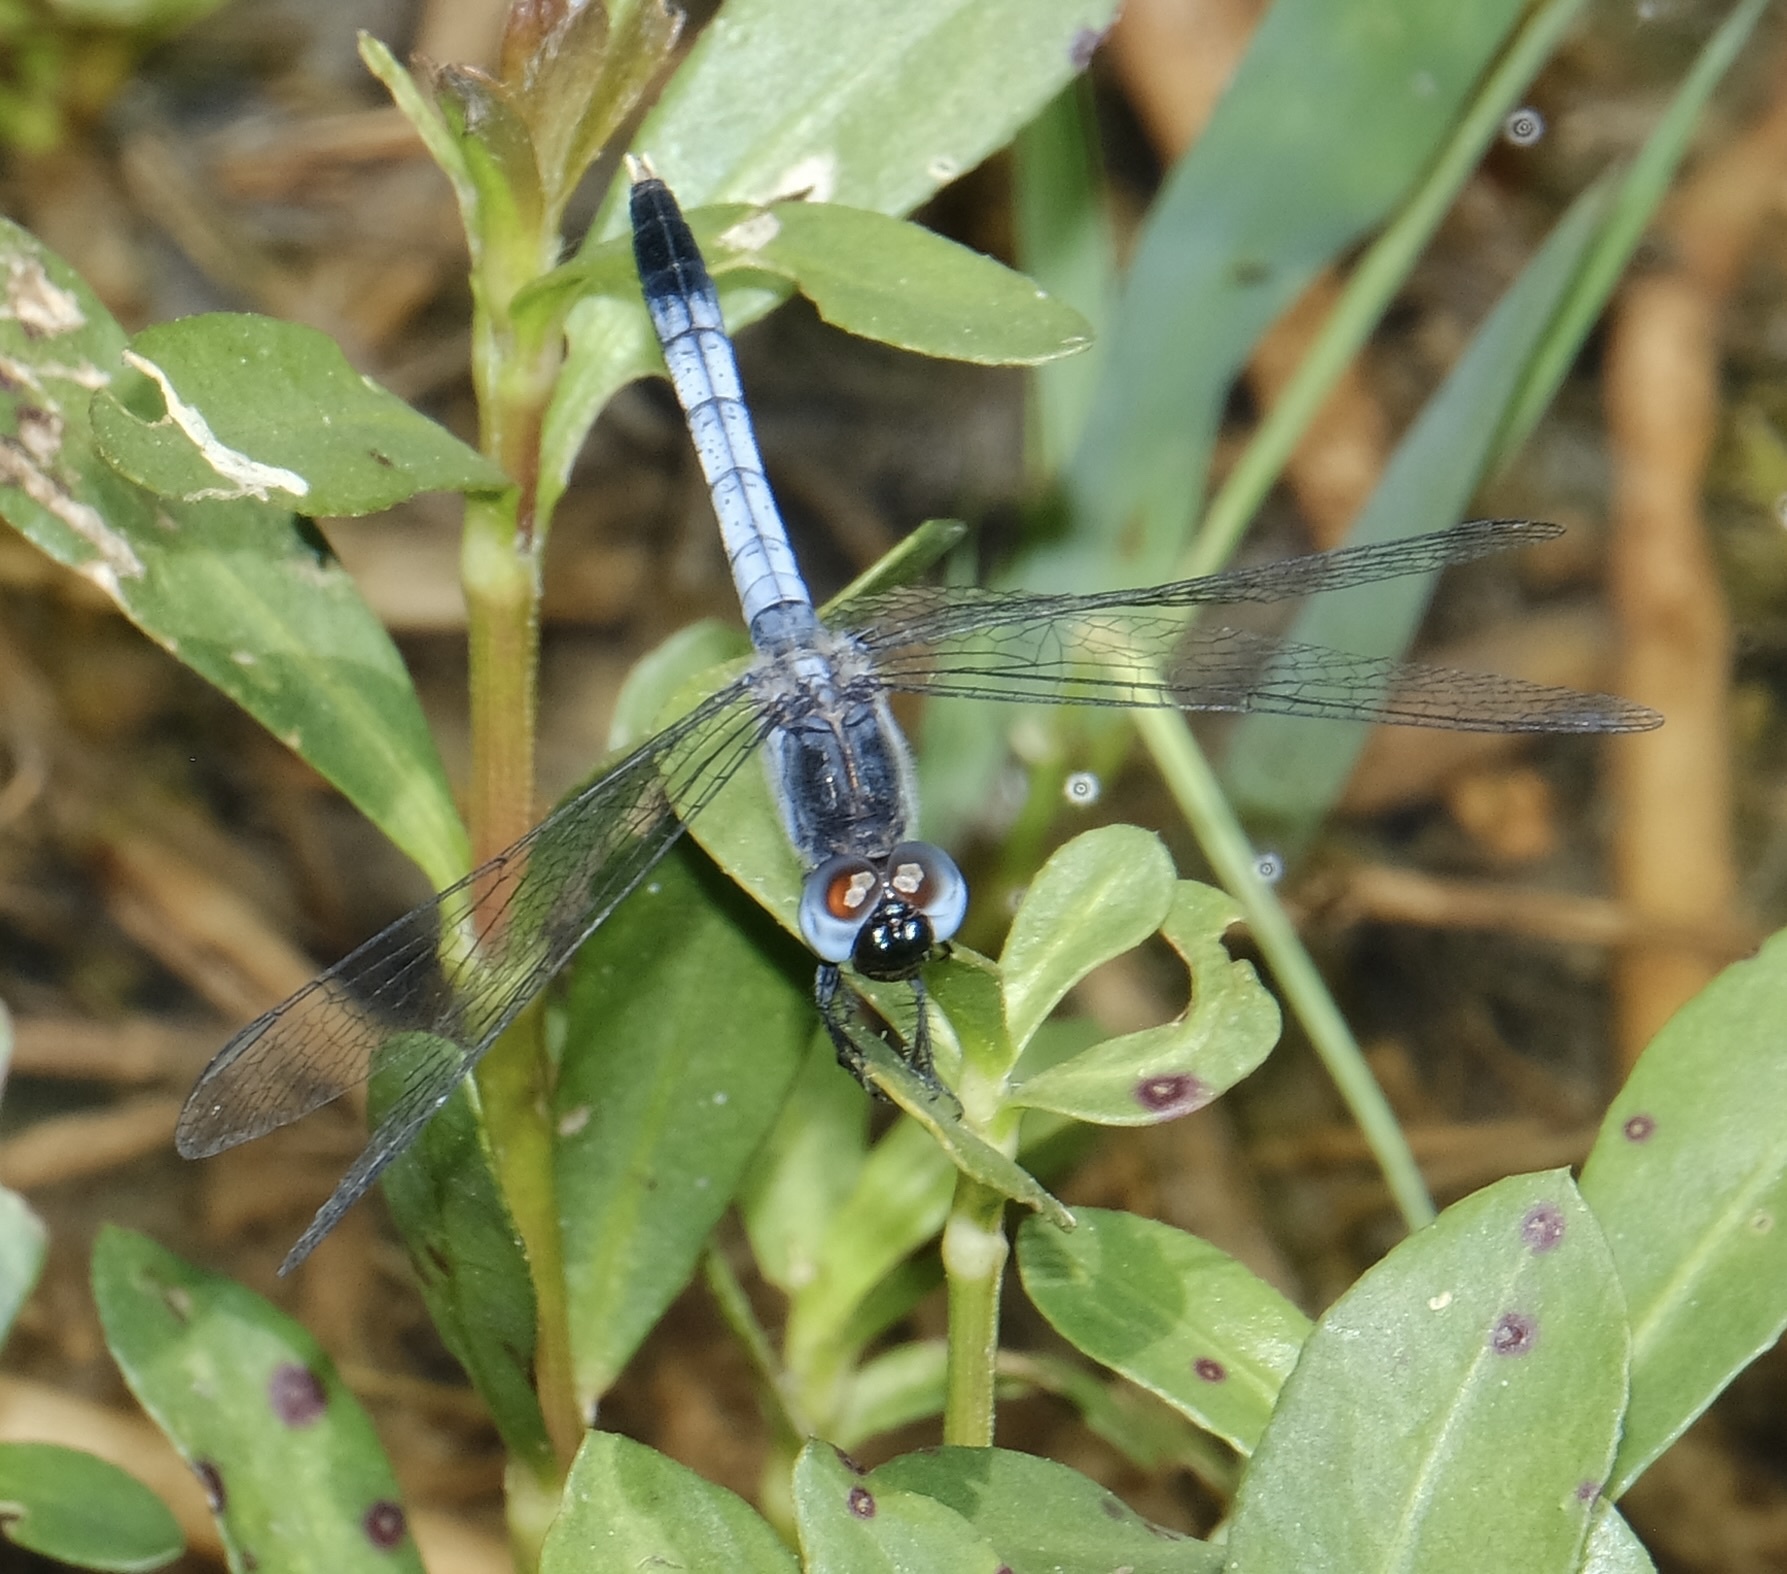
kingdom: Animalia
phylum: Arthropoda
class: Insecta
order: Odonata
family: Libellulidae
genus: Erythrodiplax
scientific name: Erythrodiplax minuscula
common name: Little blue dragonlet
